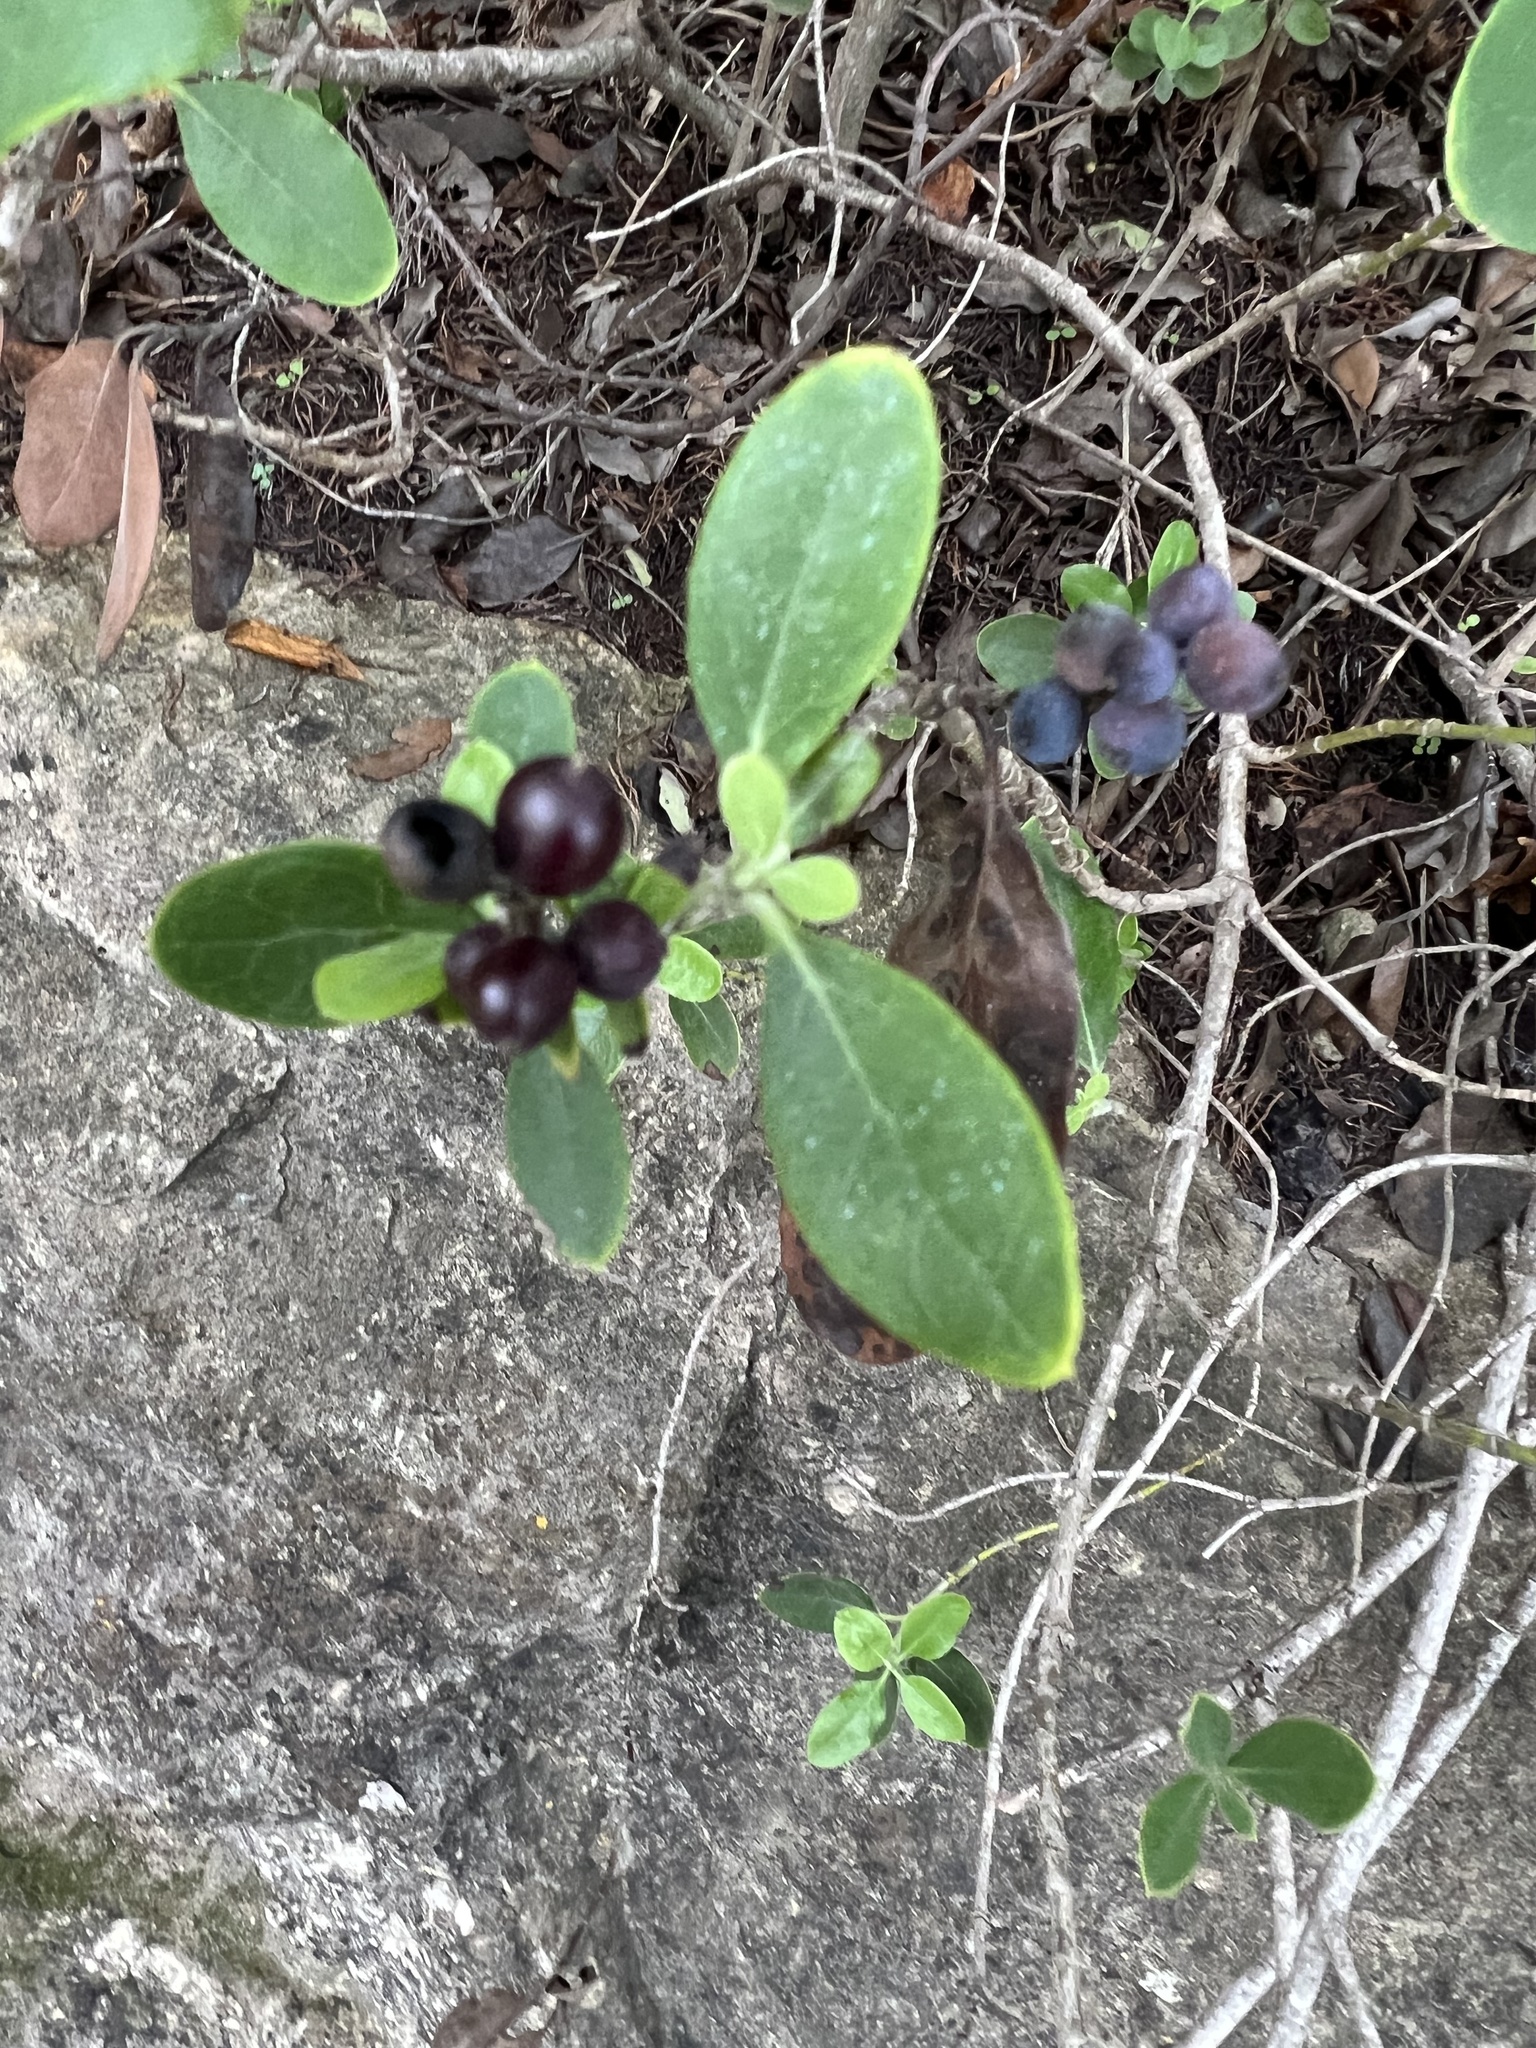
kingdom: Plantae
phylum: Tracheophyta
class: Magnoliopsida
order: Garryales
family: Garryaceae
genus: Garrya
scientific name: Garrya lindheimeri
